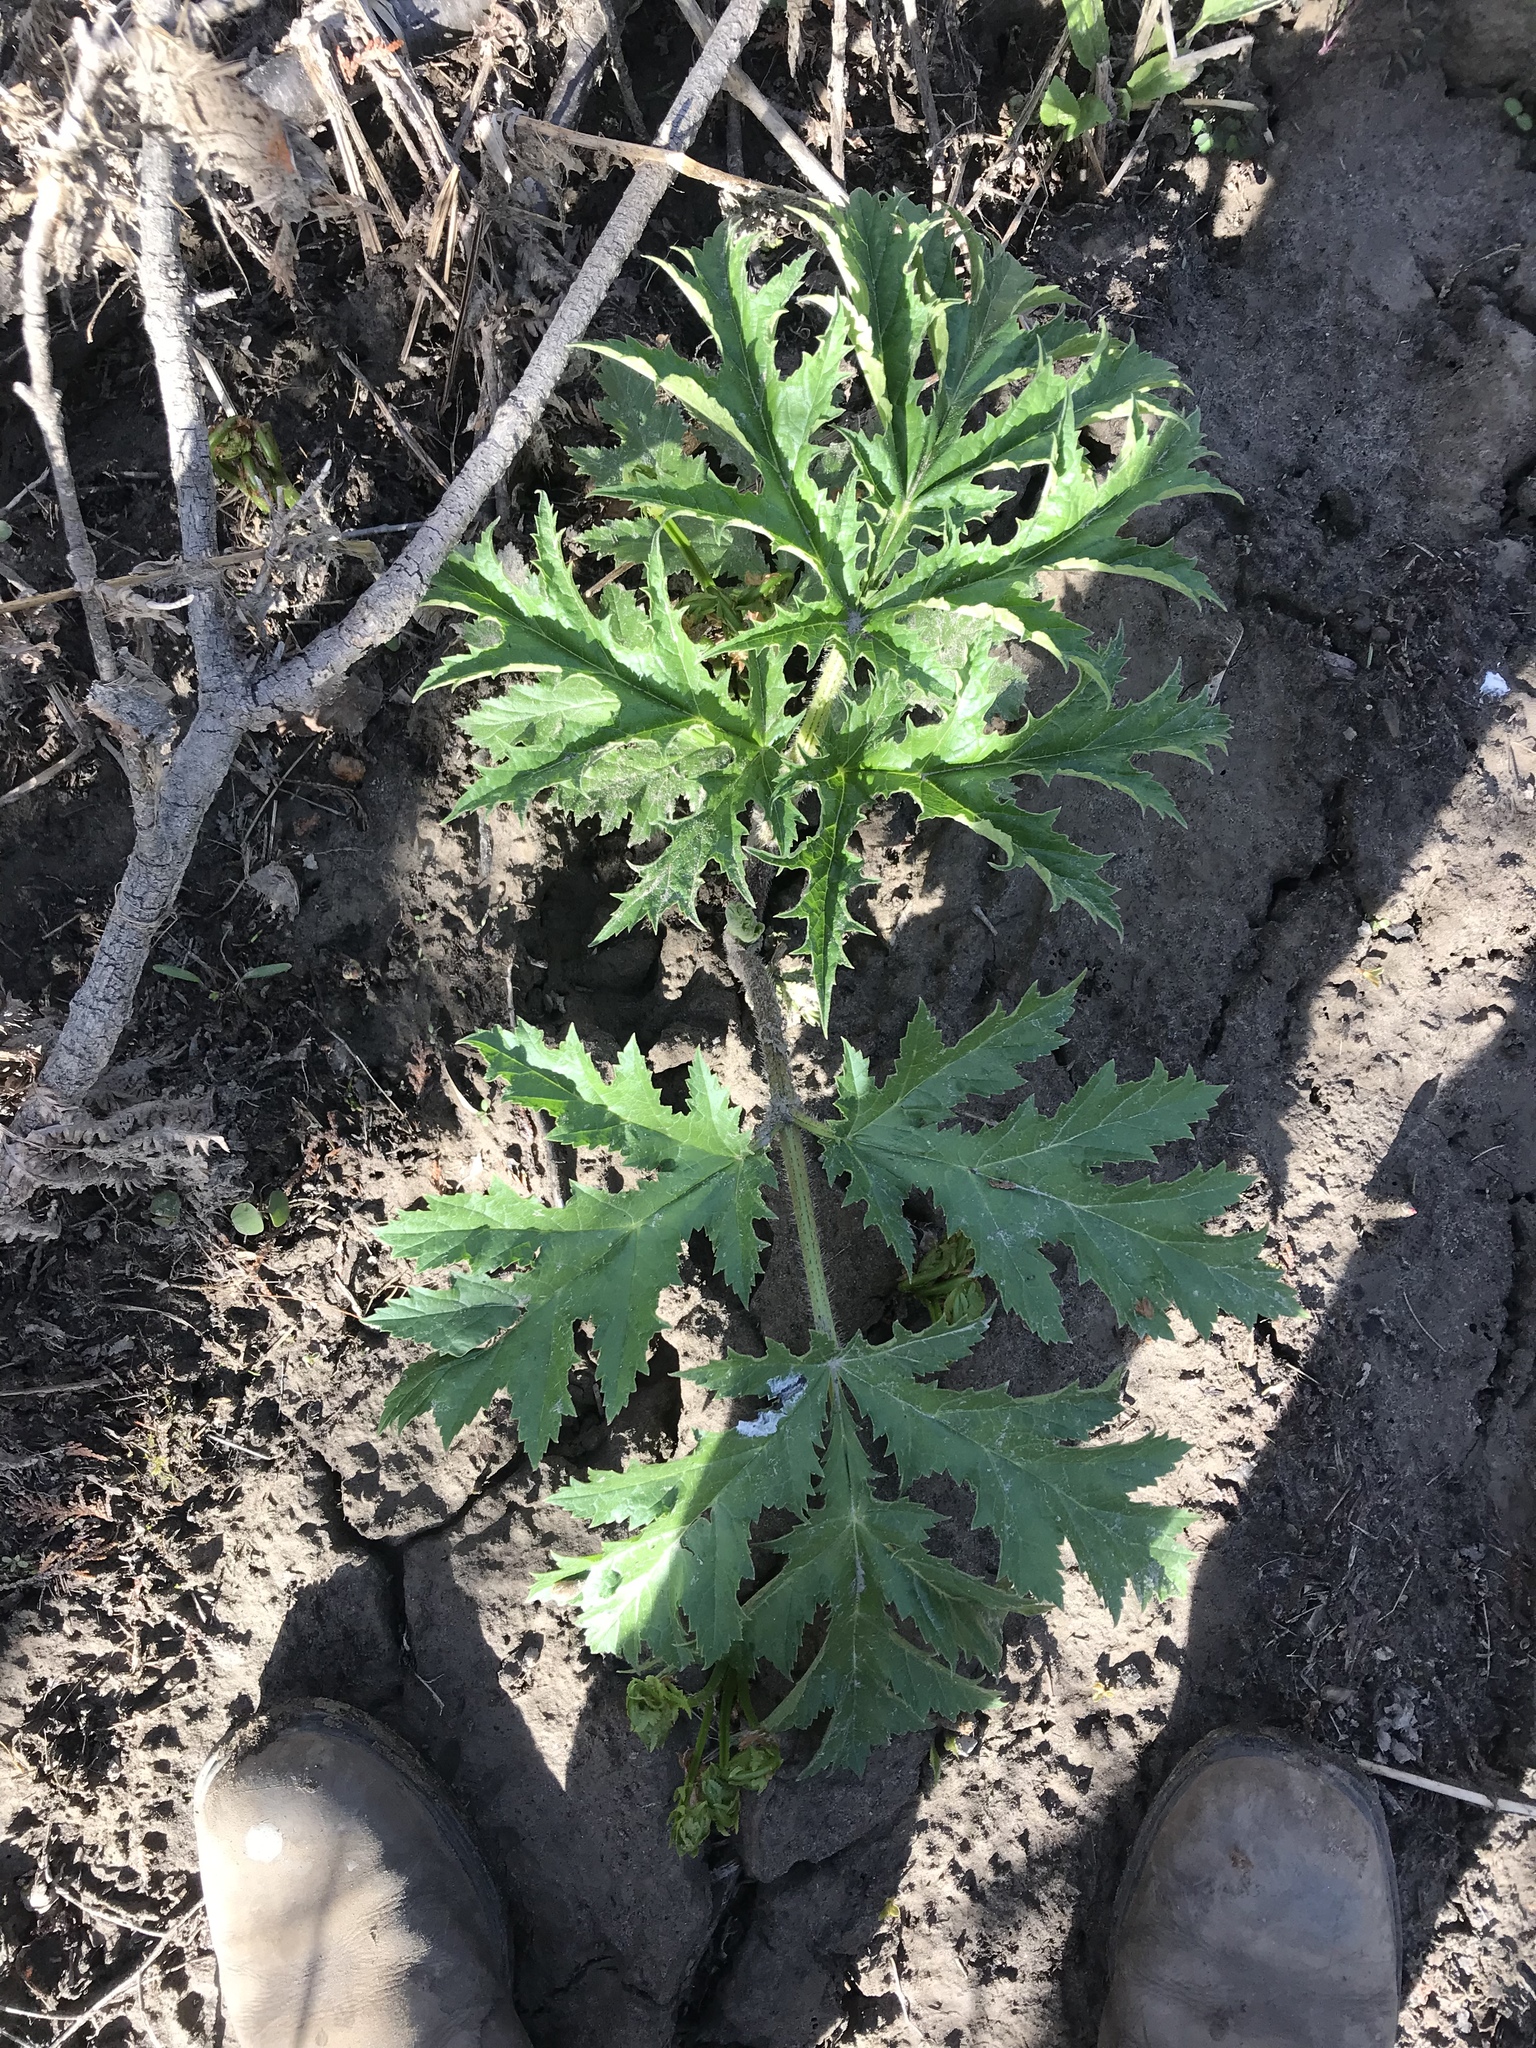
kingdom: Plantae
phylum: Tracheophyta
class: Magnoliopsida
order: Apiales
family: Apiaceae
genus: Heracleum
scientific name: Heracleum mantegazzianum
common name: Giant hogweed
